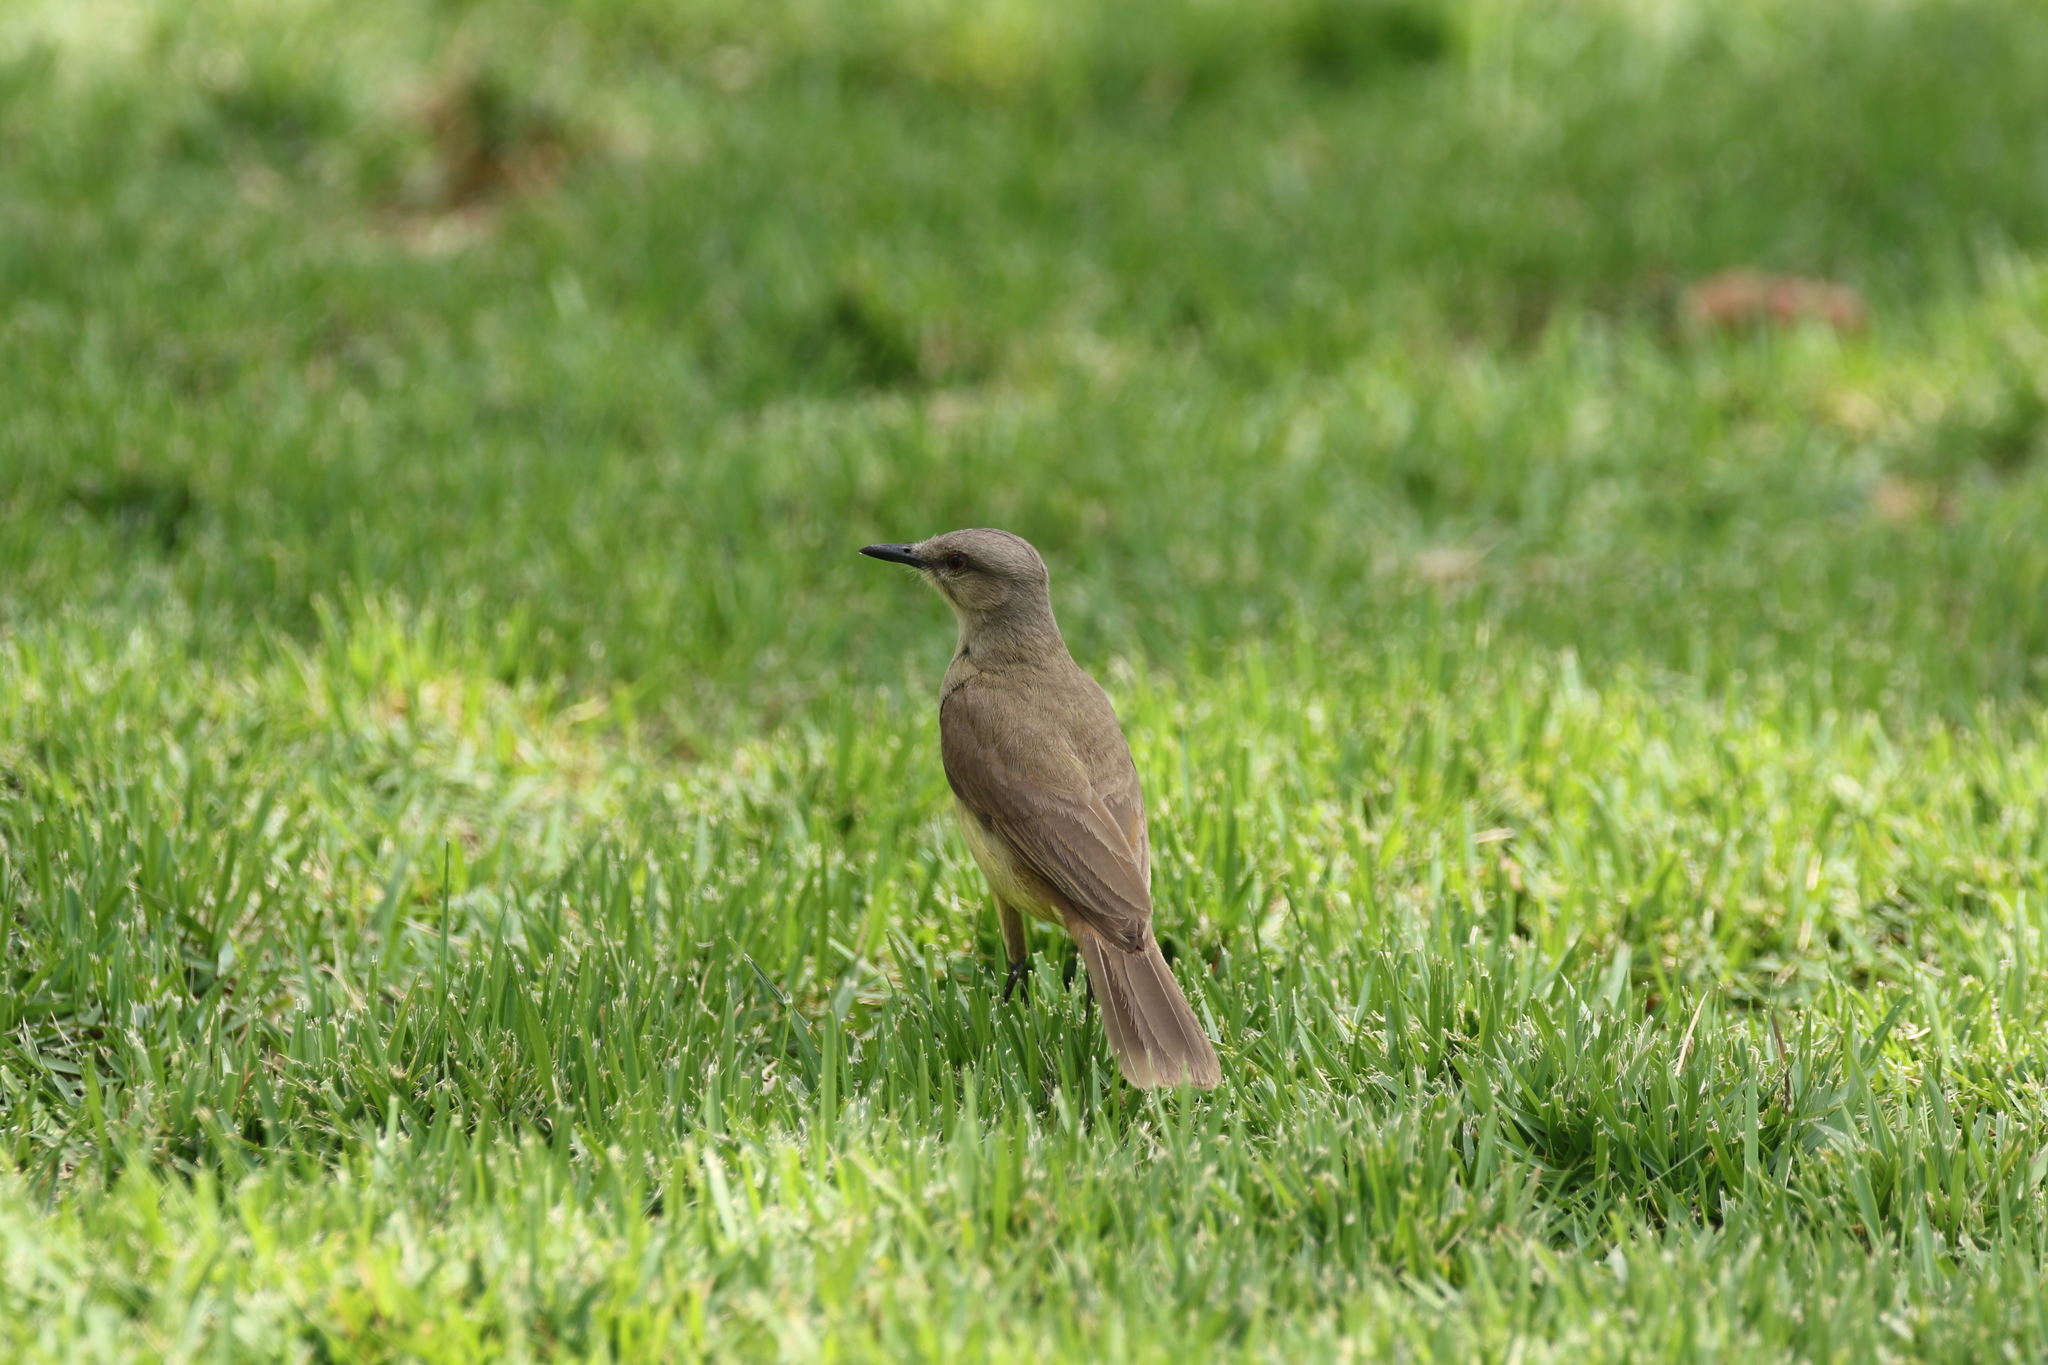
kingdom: Animalia
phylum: Chordata
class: Aves
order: Passeriformes
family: Tyrannidae
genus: Machetornis
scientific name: Machetornis rixosa
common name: Cattle tyrant
